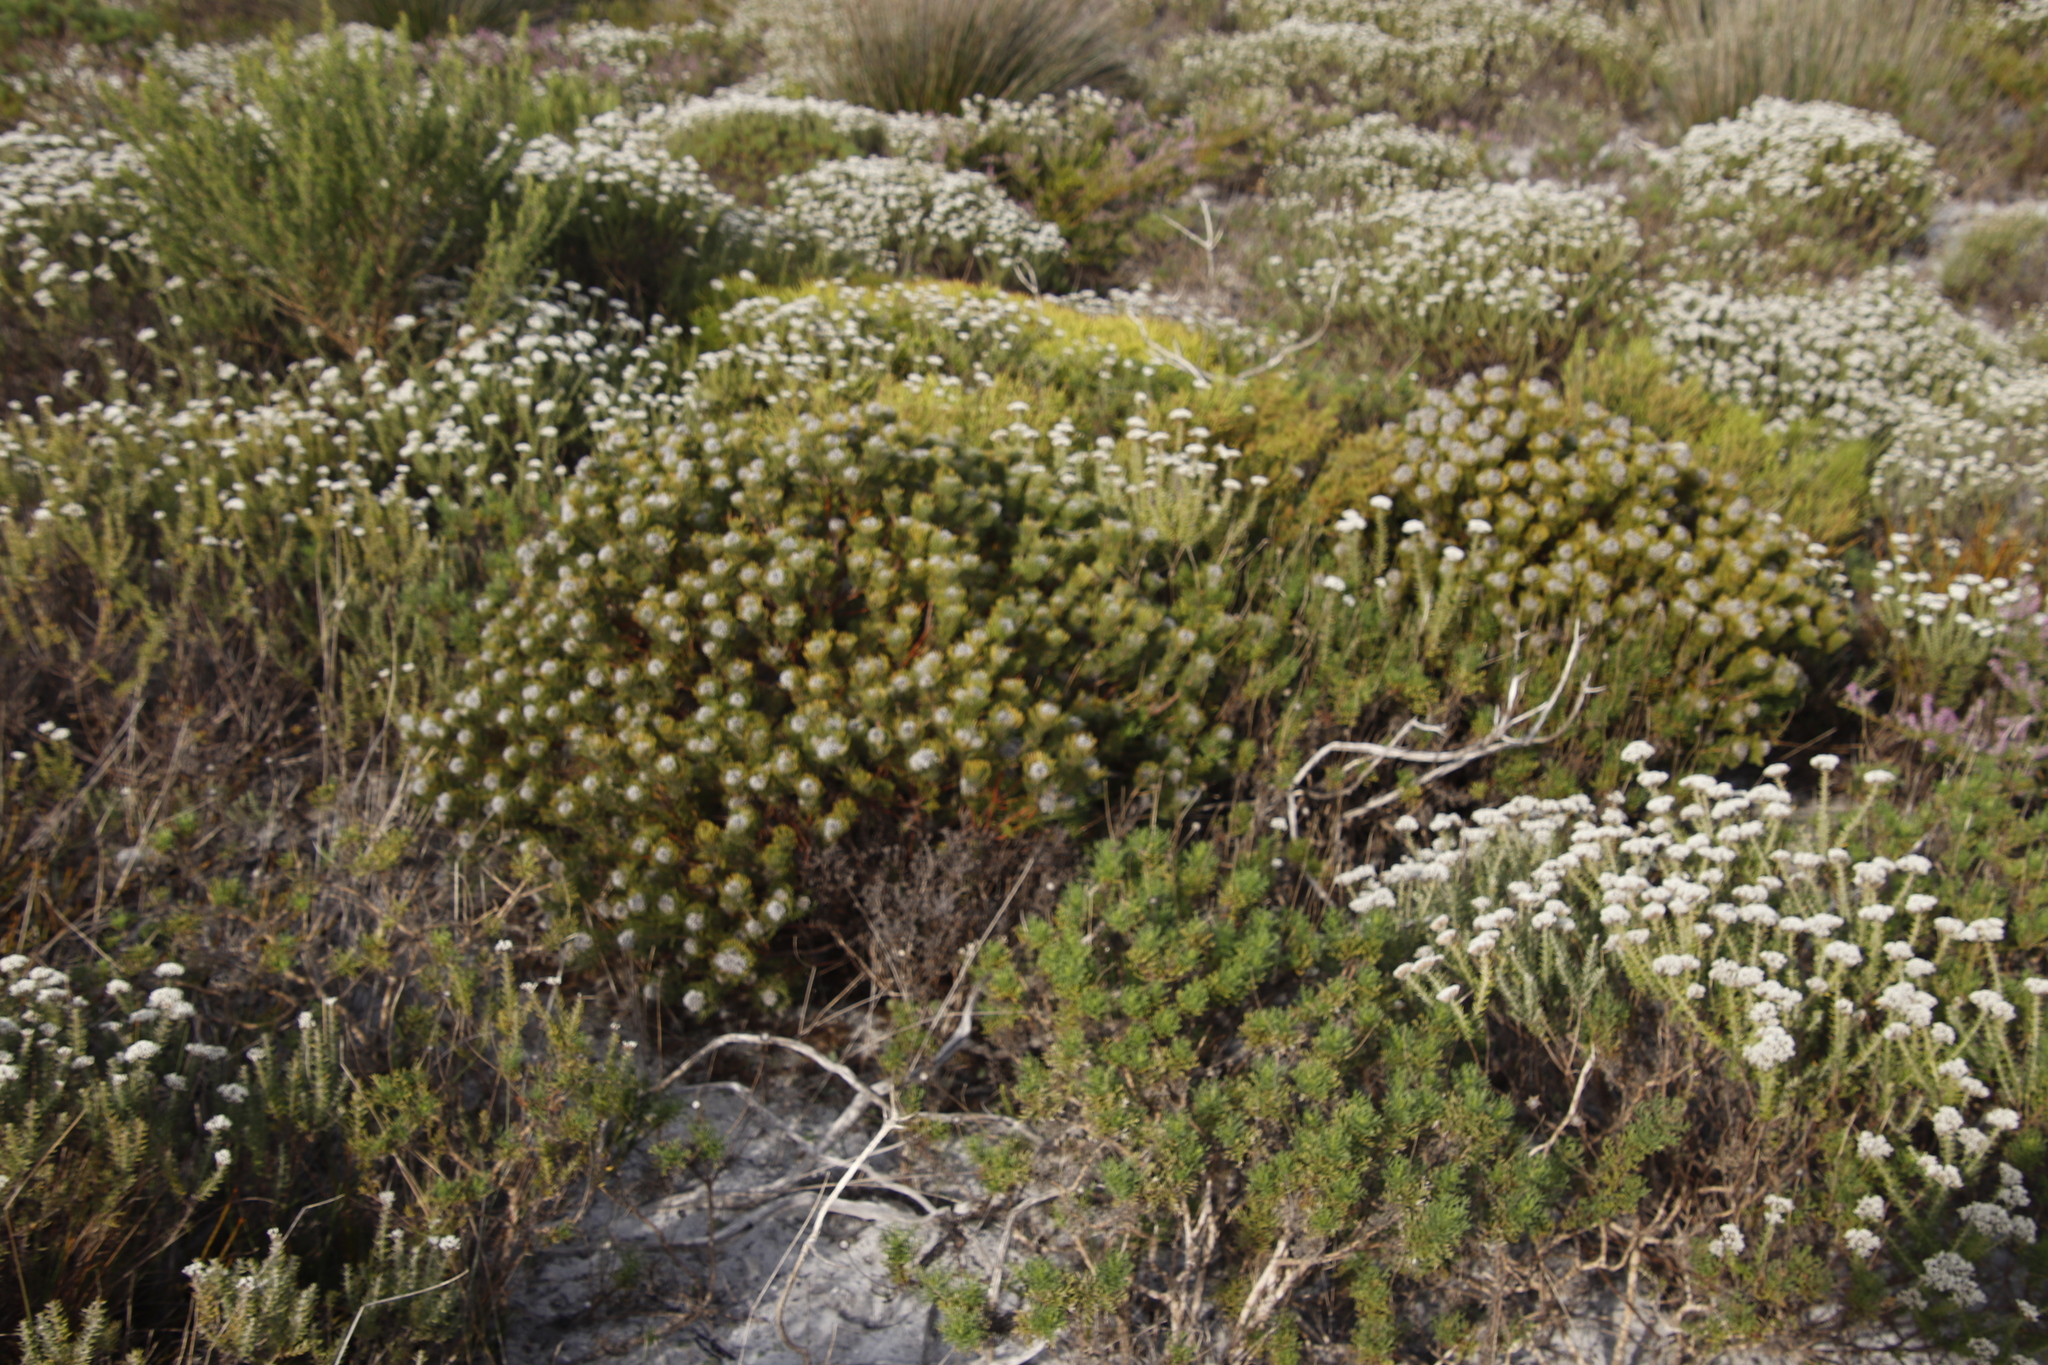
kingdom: Plantae
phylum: Tracheophyta
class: Magnoliopsida
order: Proteales
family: Proteaceae
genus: Serruria
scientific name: Serruria villosa
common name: Golden spiderhead
